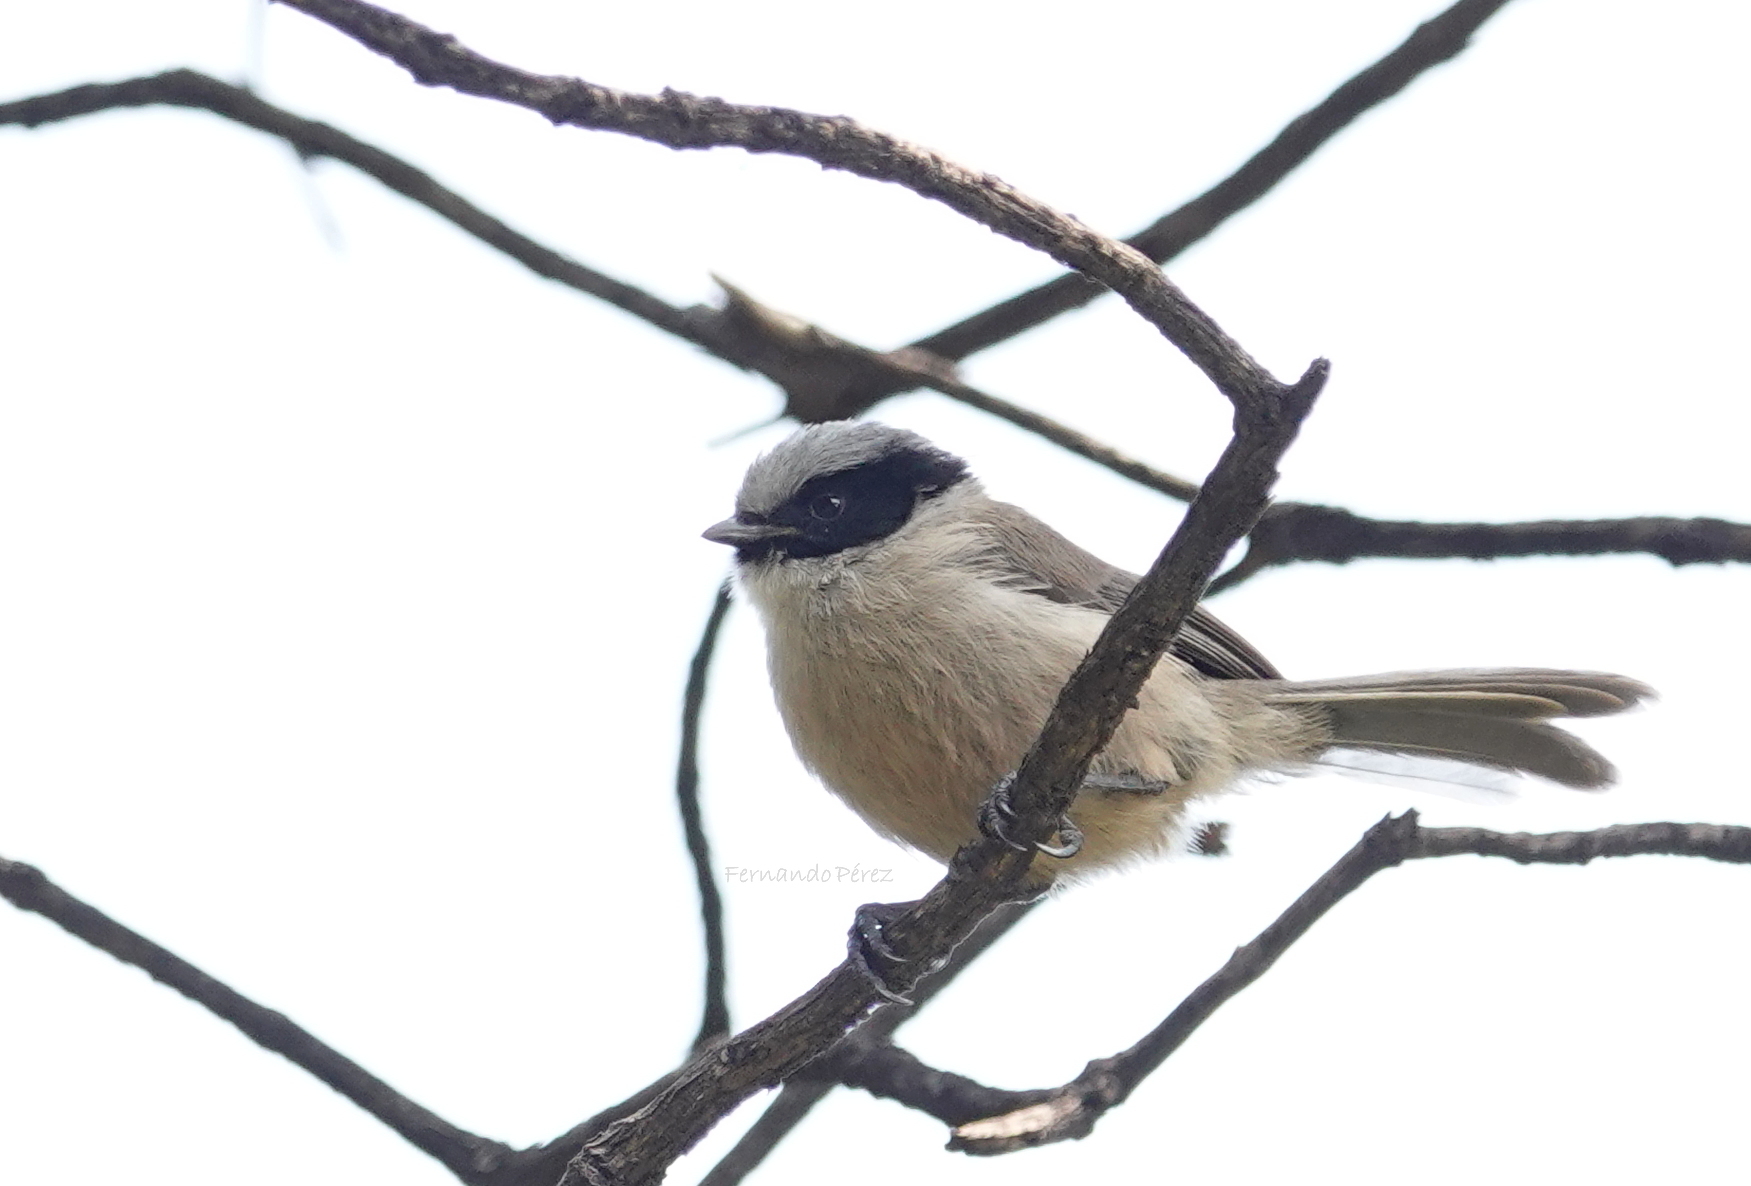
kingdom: Animalia
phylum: Chordata
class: Aves
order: Passeriformes
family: Aegithalidae
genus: Psaltriparus
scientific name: Psaltriparus minimus
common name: American bushtit
